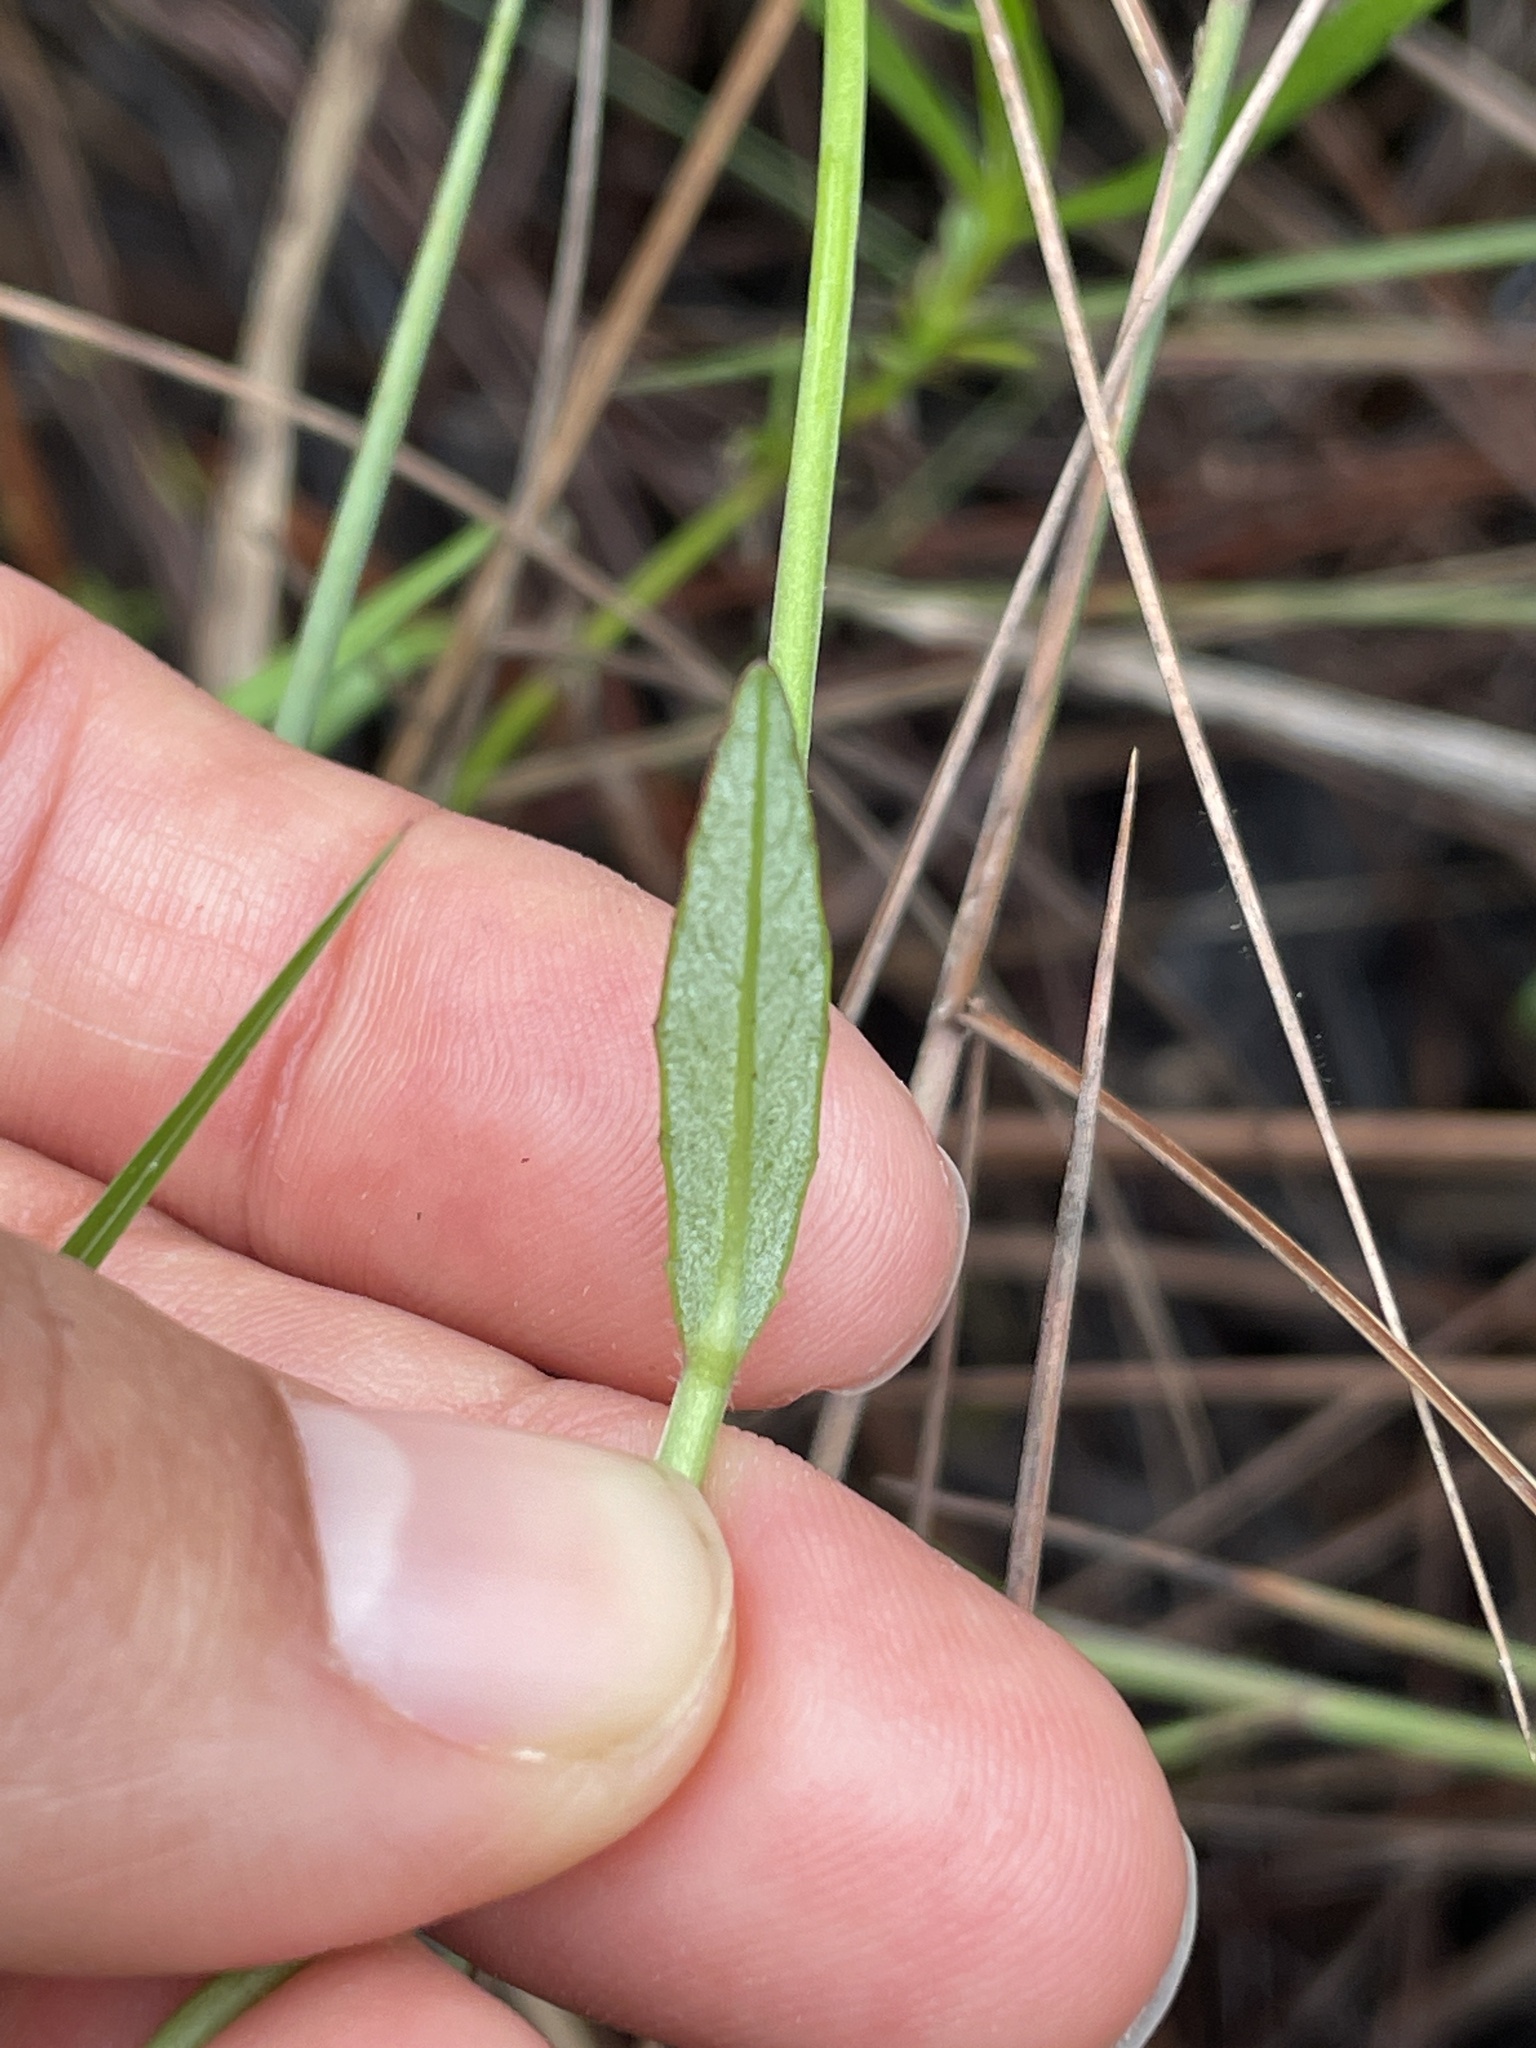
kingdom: Plantae
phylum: Tracheophyta
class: Magnoliopsida
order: Asterales
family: Campanulaceae
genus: Lobelia
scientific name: Lobelia glandulosa
